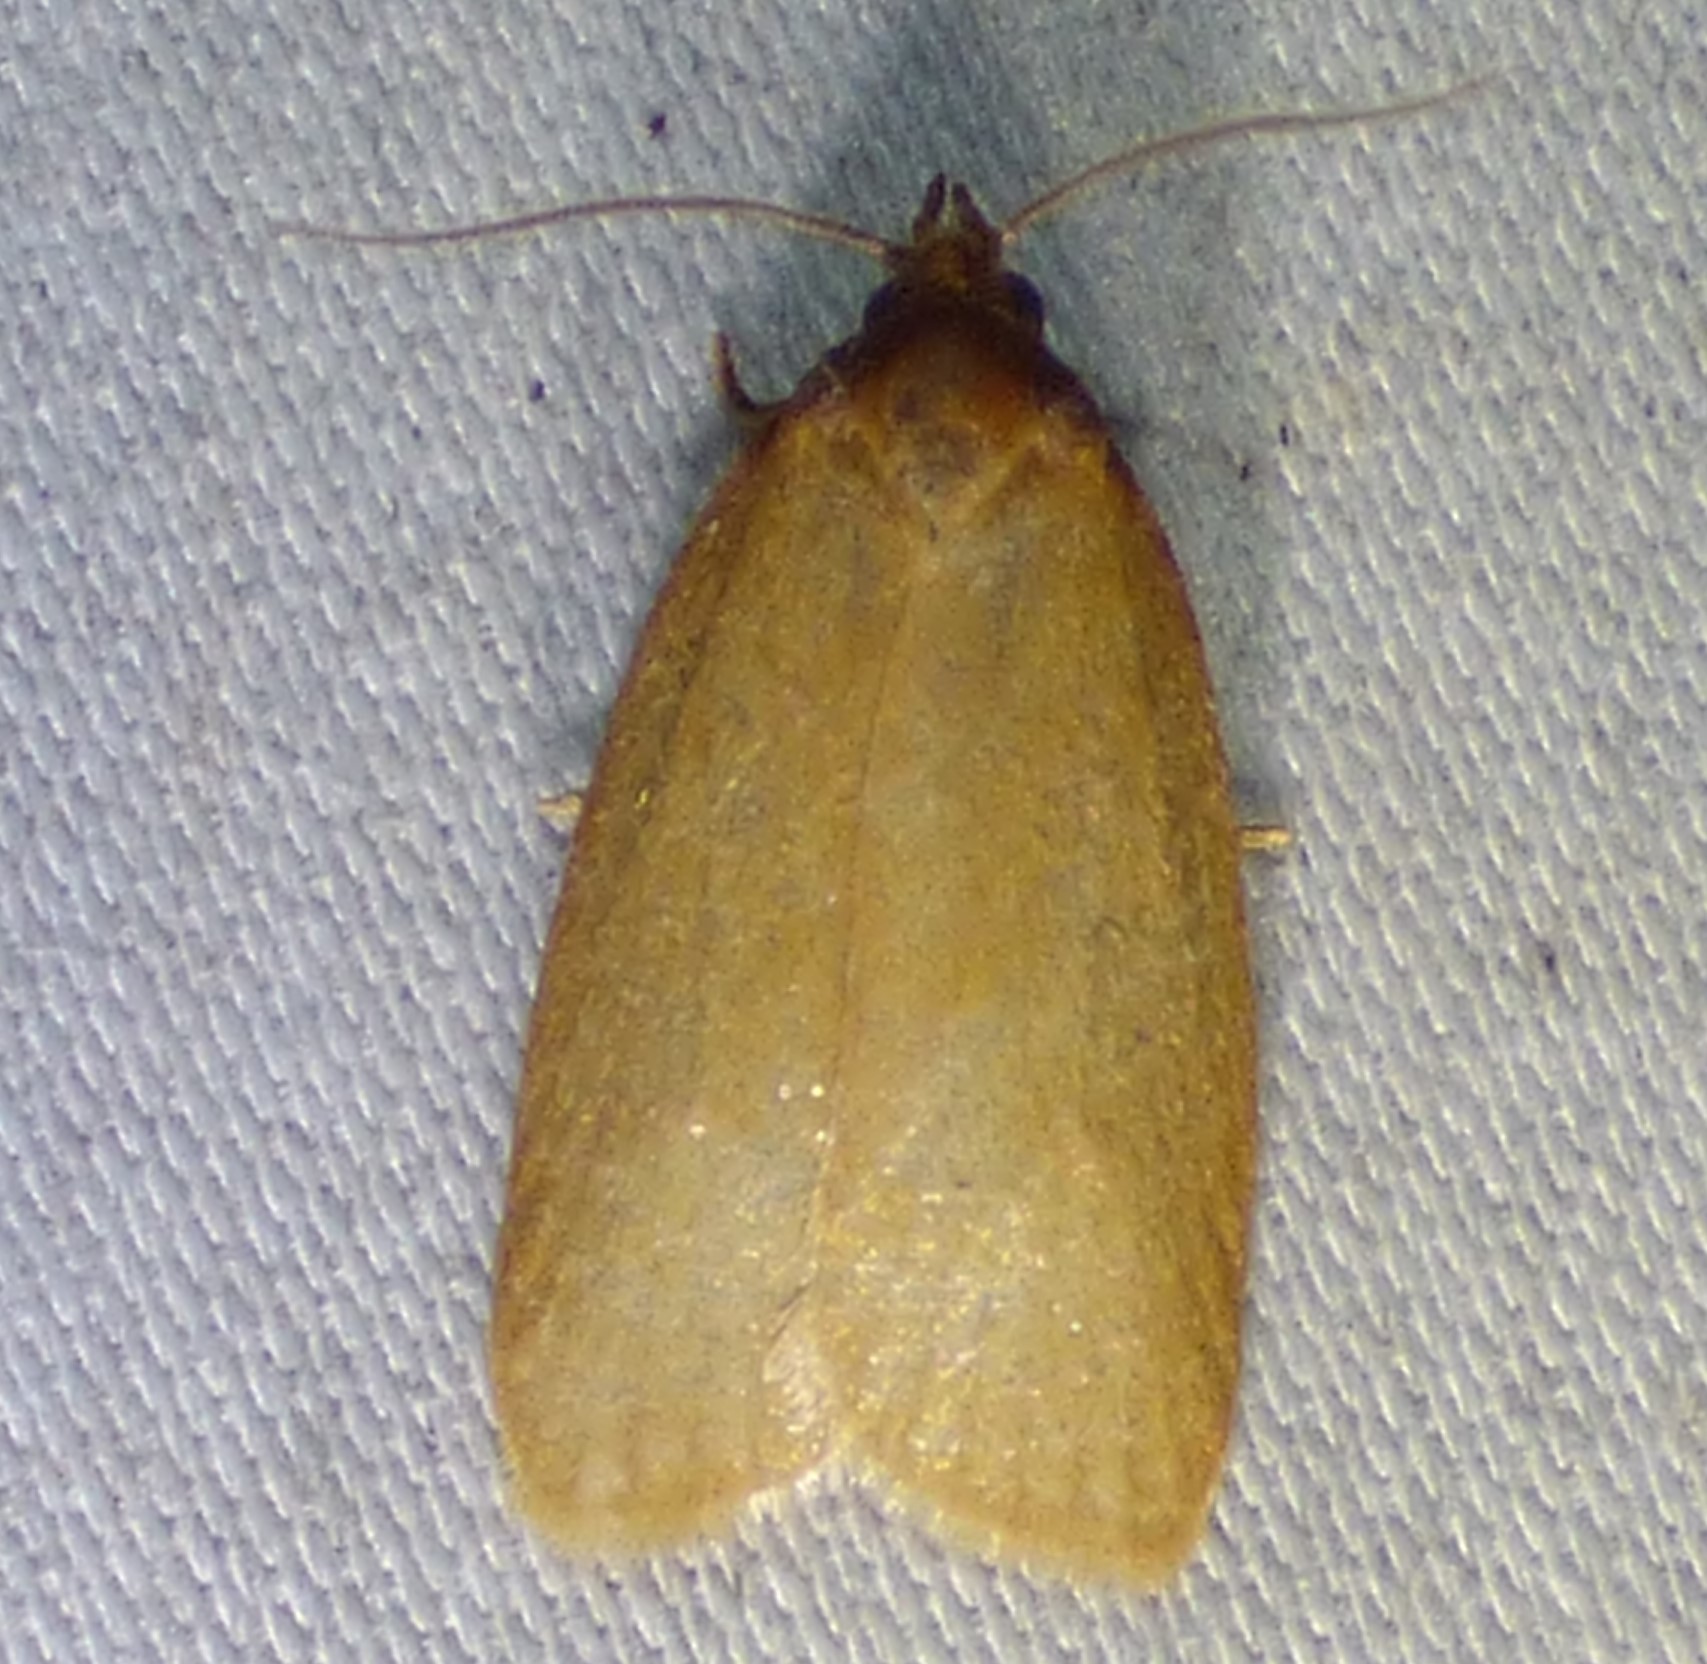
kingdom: Animalia
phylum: Arthropoda
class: Insecta
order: Lepidoptera
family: Tortricidae
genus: Sparganothis
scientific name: Sparganothis distincta
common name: Distinct sparganothis moth
